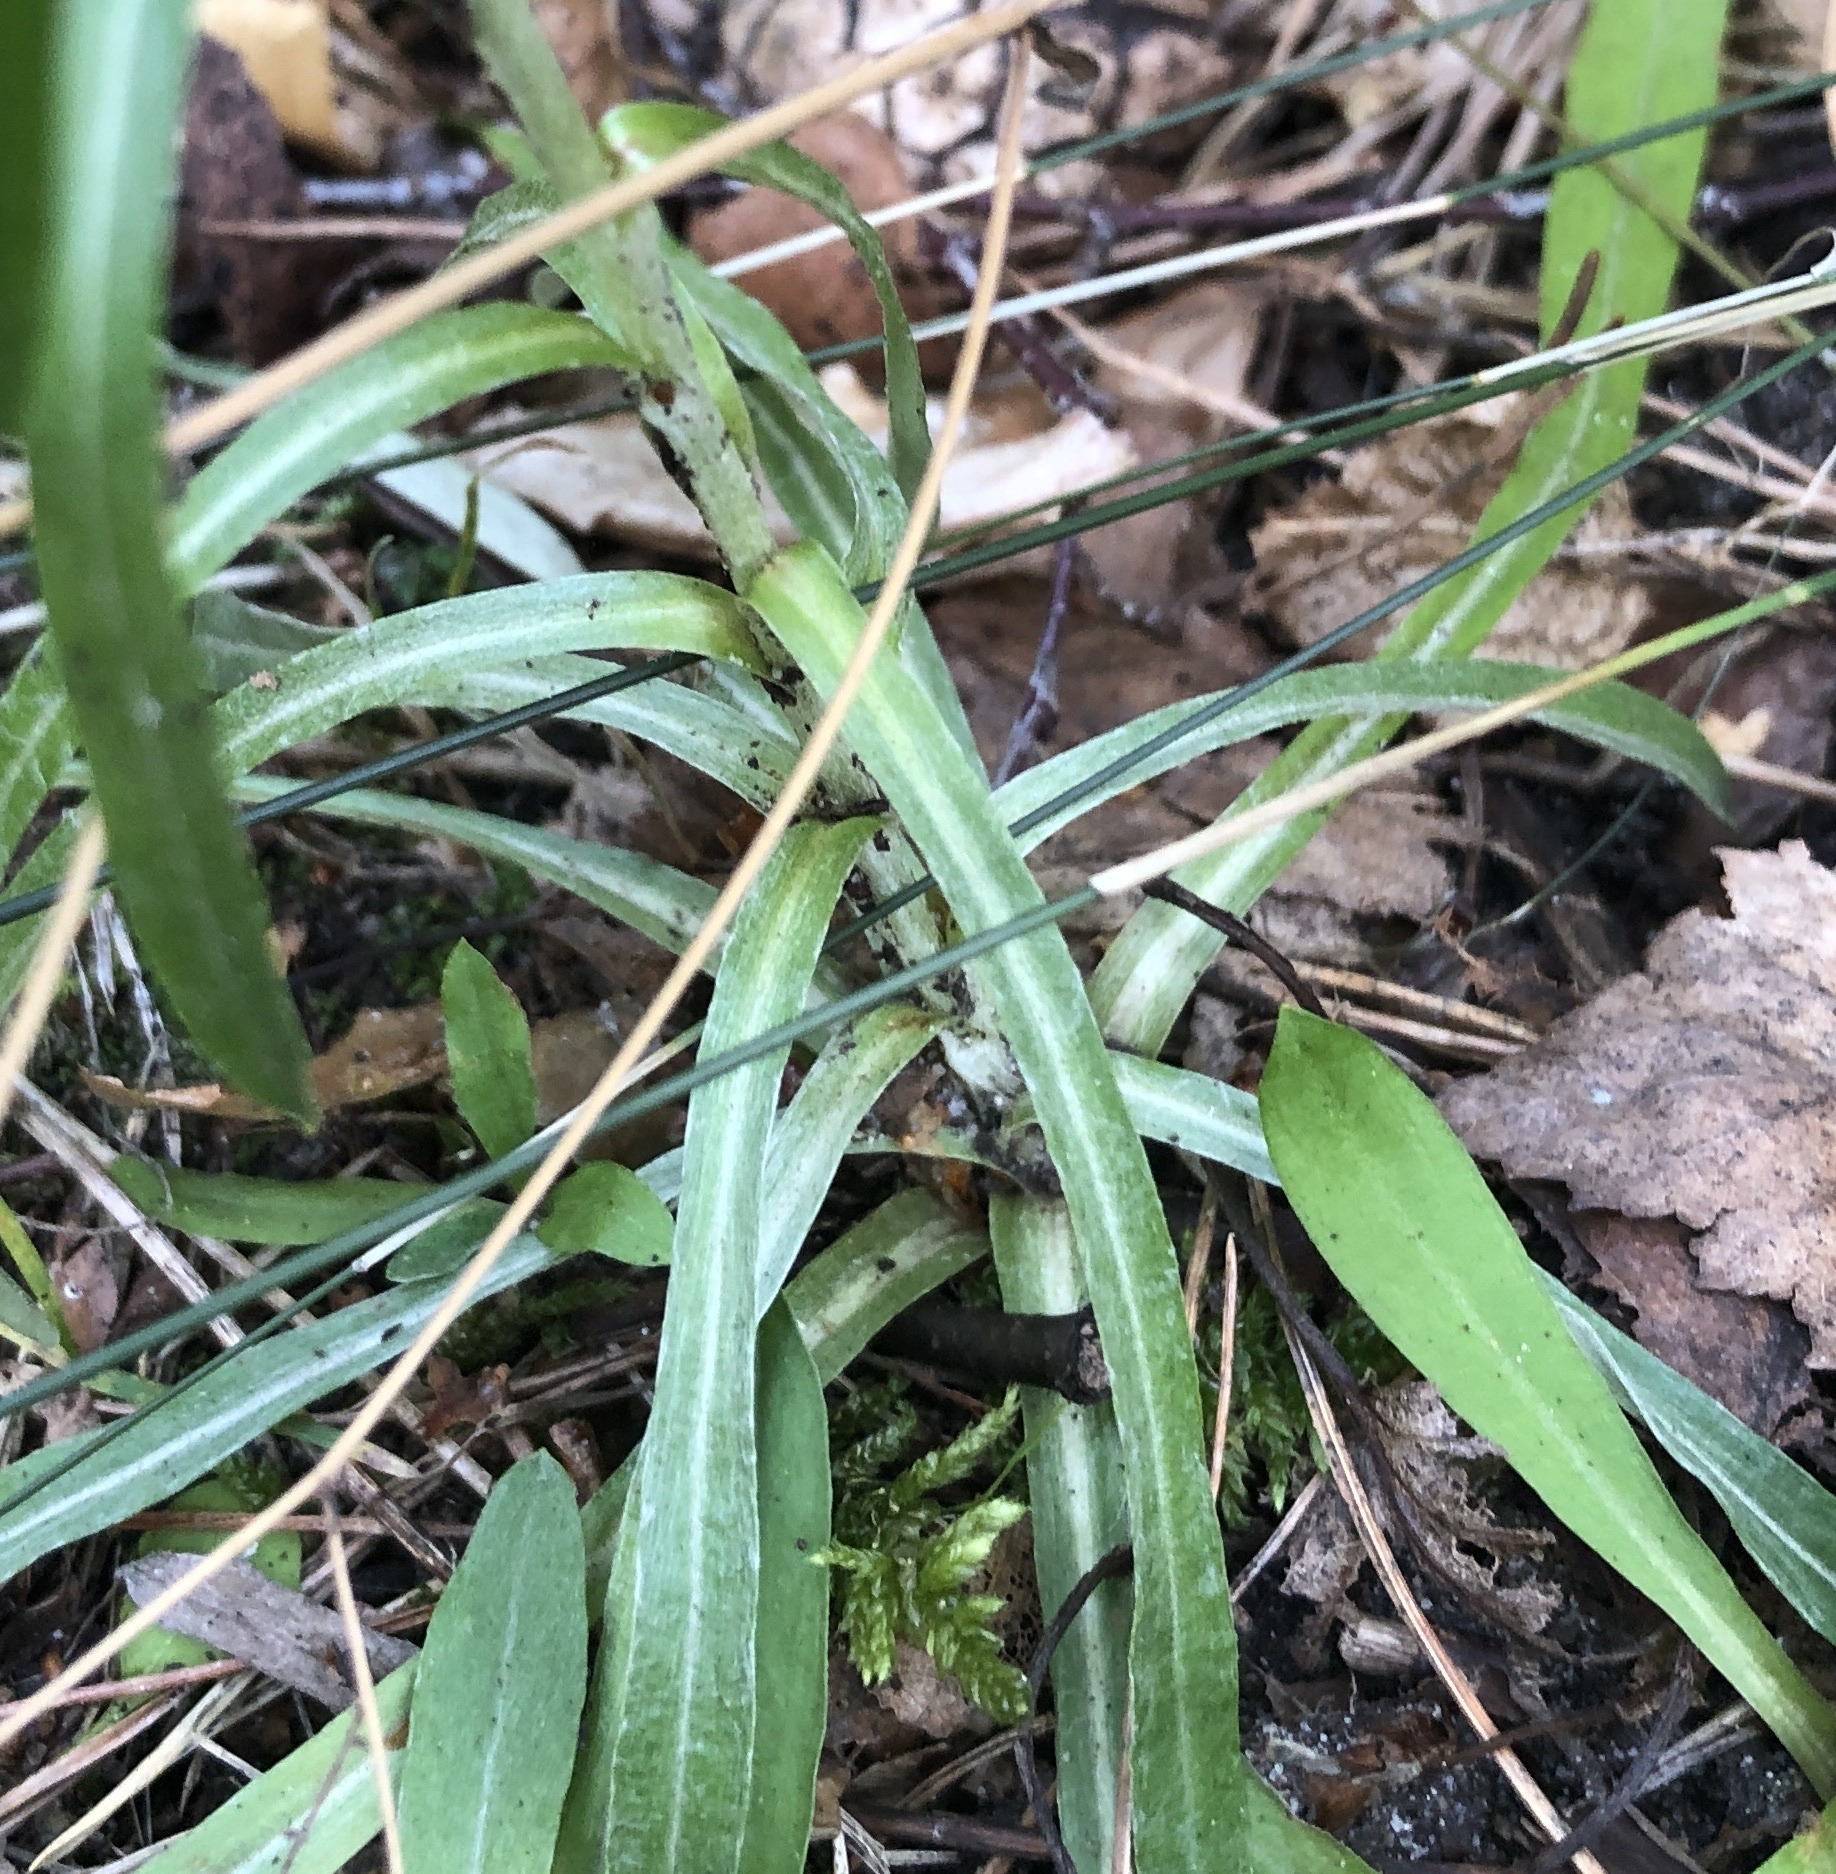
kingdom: Plantae
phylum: Tracheophyta
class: Magnoliopsida
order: Asterales
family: Asteraceae
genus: Omalotheca
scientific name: Omalotheca sylvatica
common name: Heath cudweed
